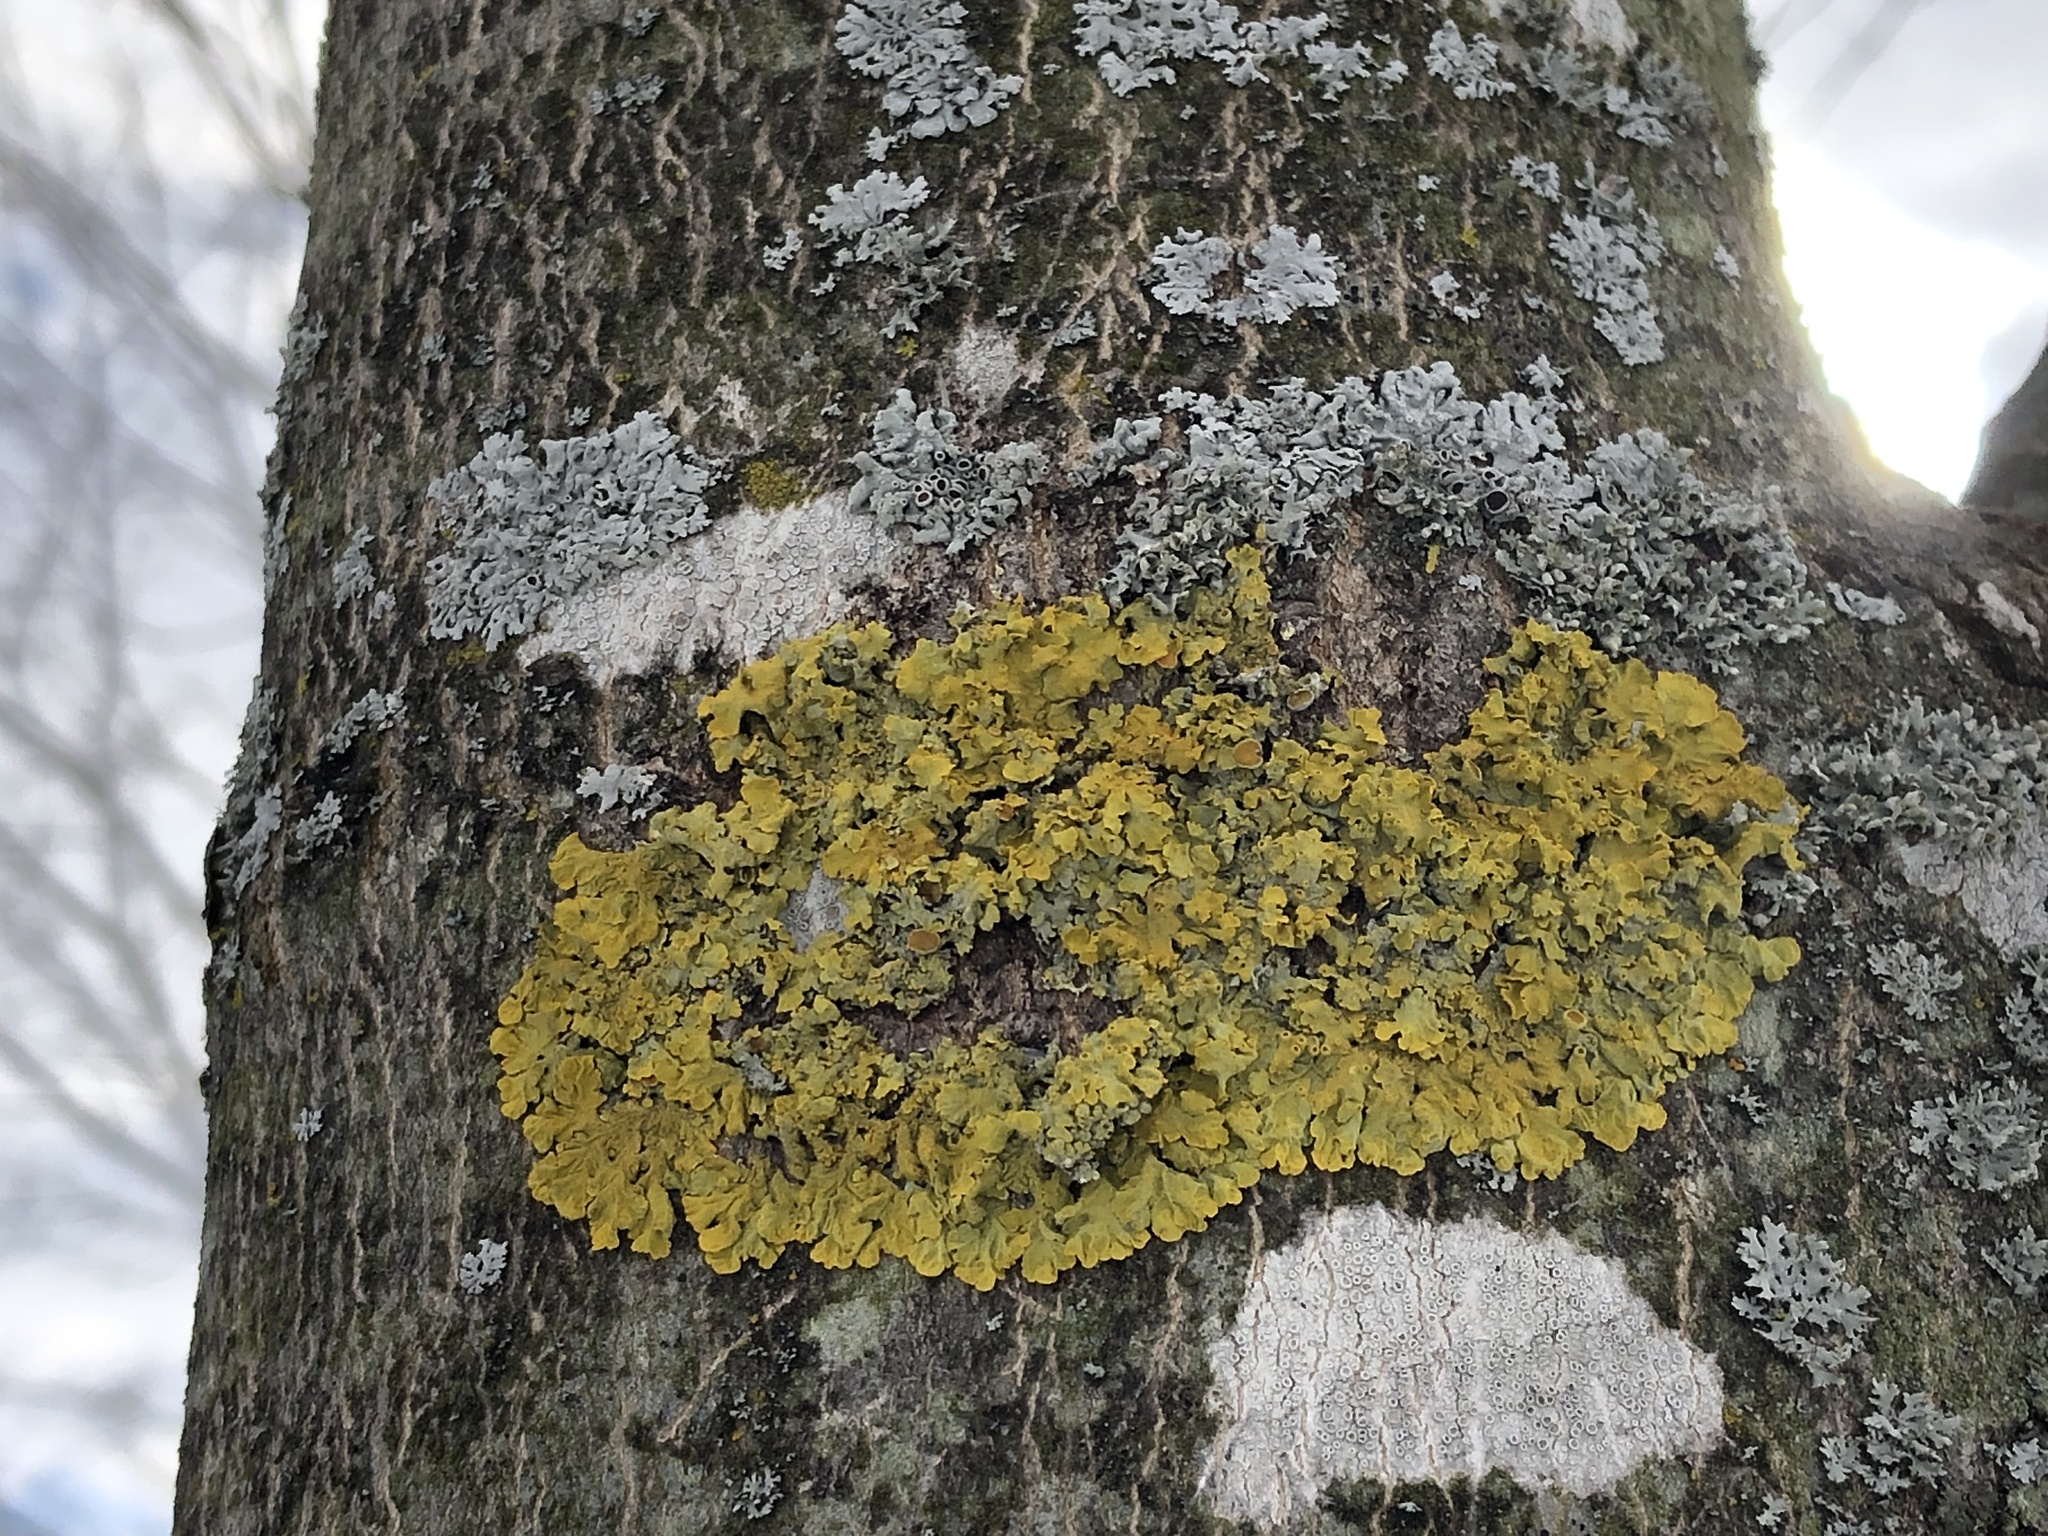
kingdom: Fungi
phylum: Ascomycota
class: Lecanoromycetes
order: Teloschistales
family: Teloschistaceae
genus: Xanthoria
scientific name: Xanthoria parietina
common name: Common orange lichen
